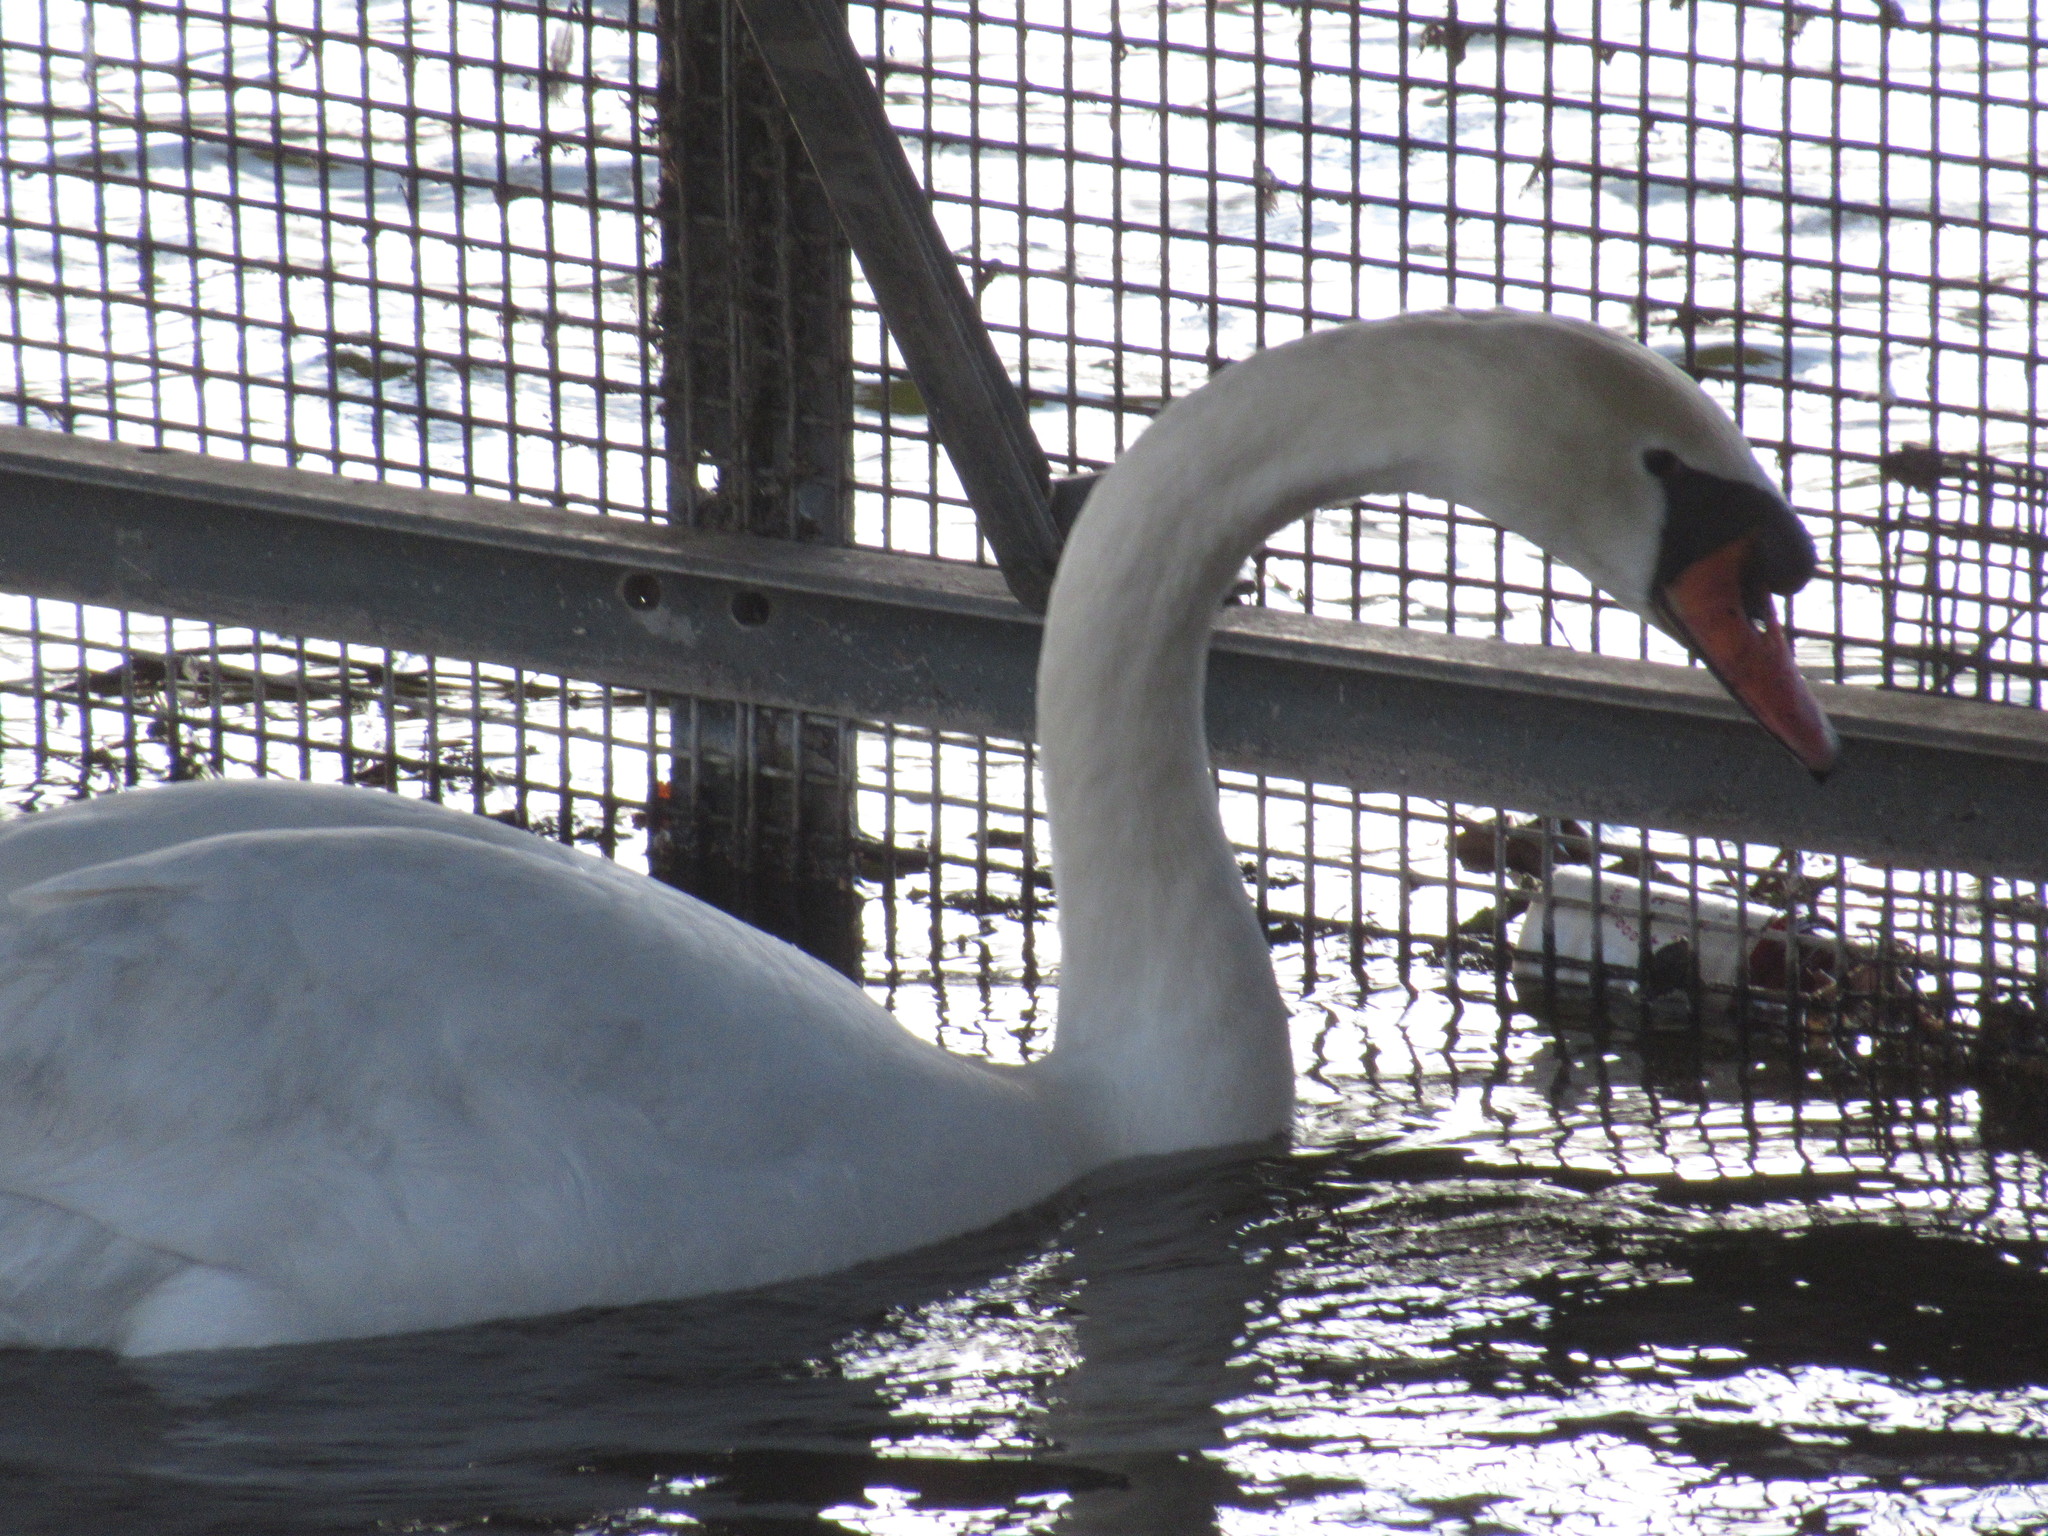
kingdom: Animalia
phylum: Chordata
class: Aves
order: Anseriformes
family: Anatidae
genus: Cygnus
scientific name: Cygnus olor
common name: Mute swan
